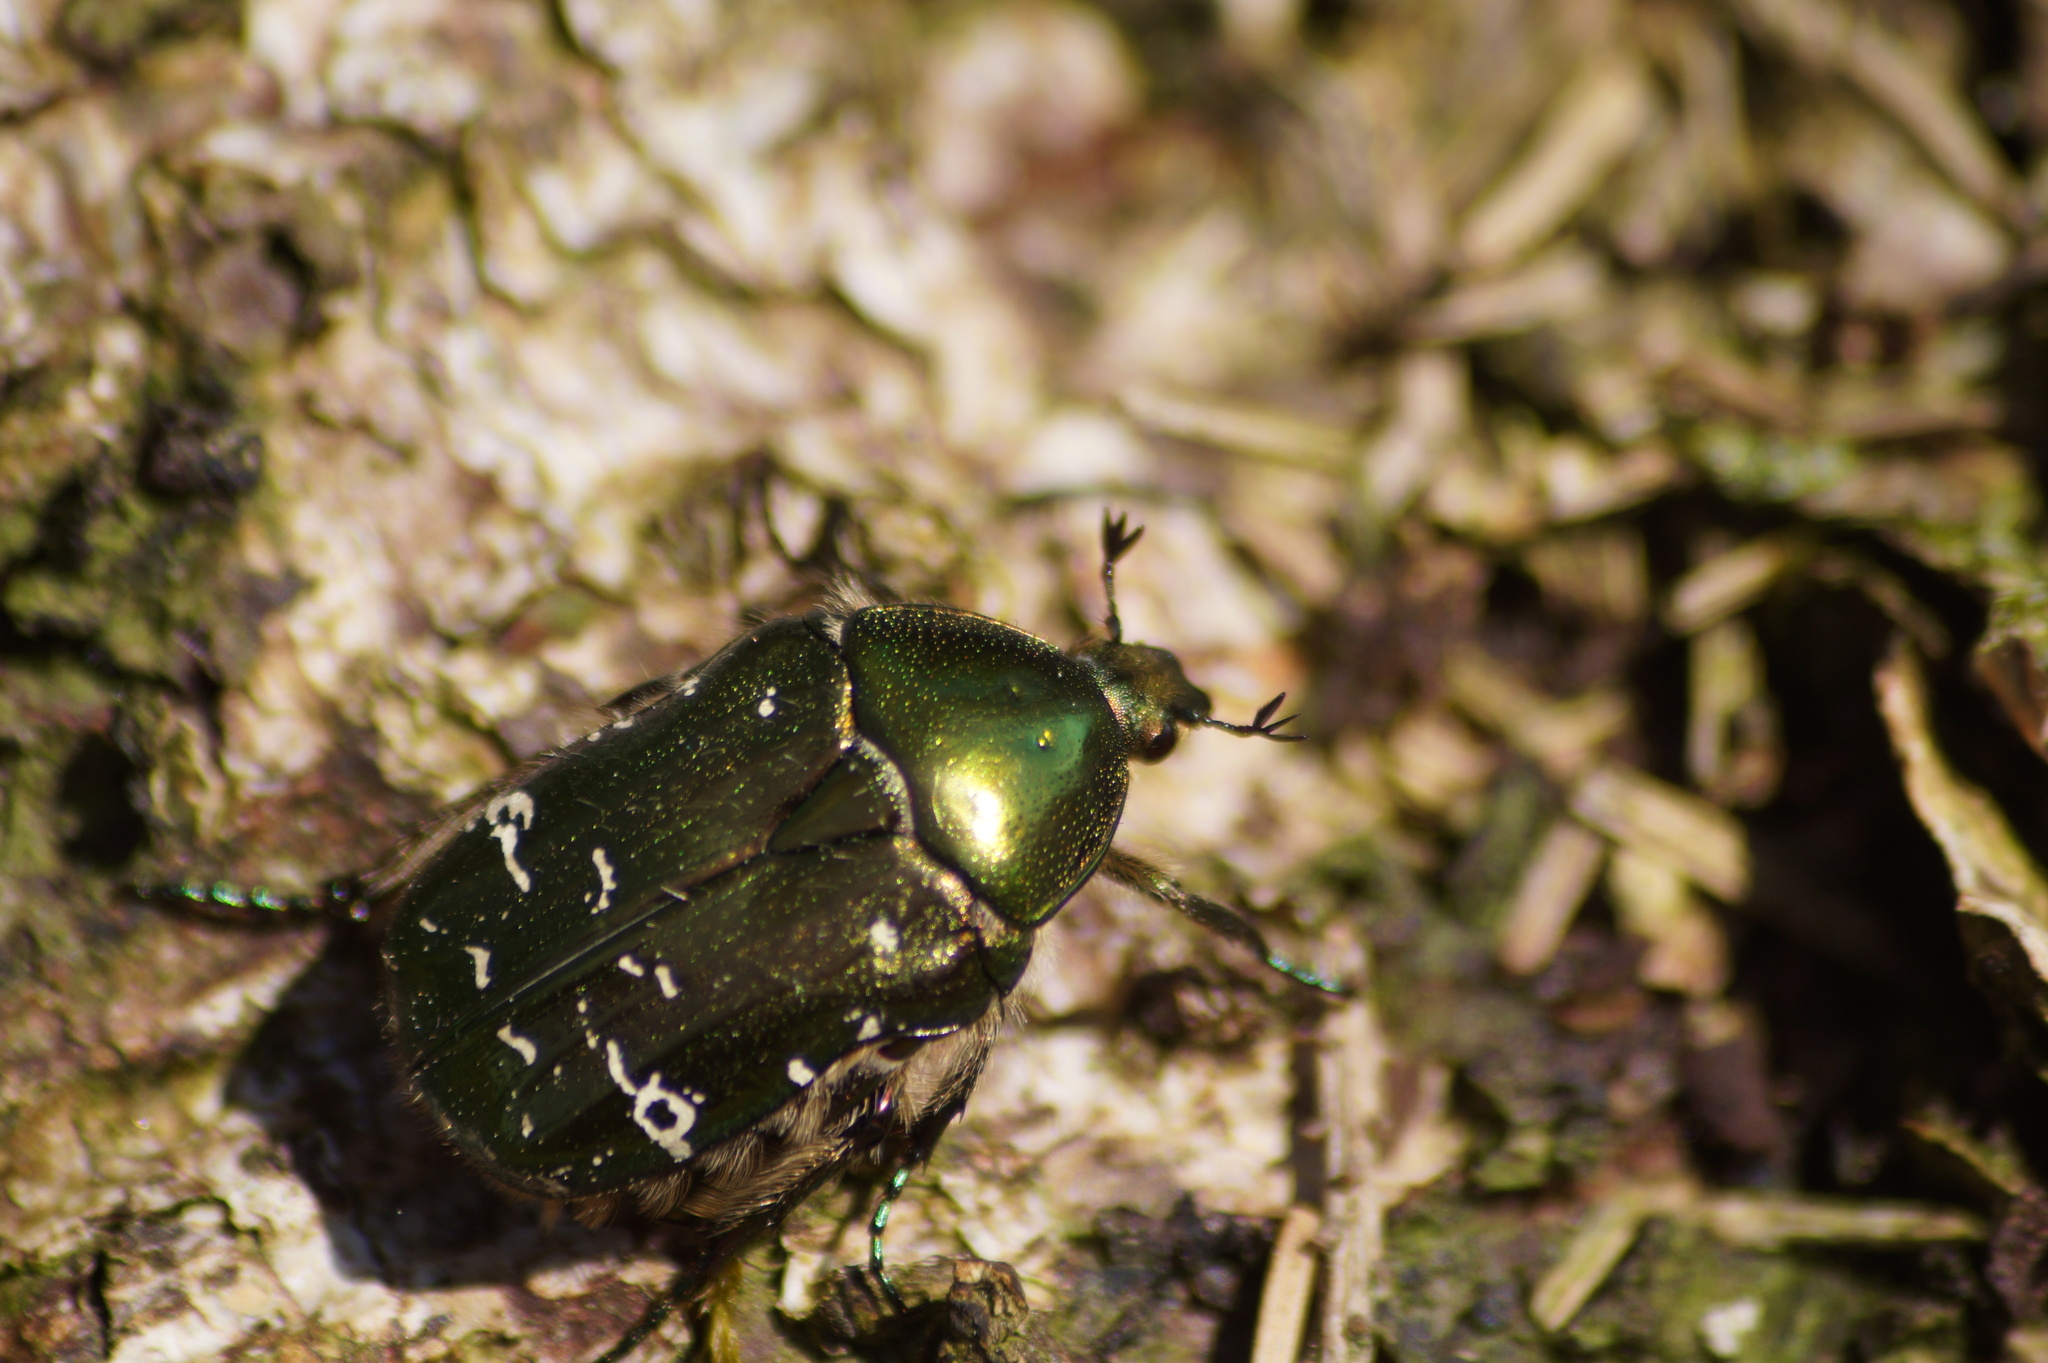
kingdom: Animalia
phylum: Arthropoda
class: Insecta
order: Coleoptera
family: Scarabaeidae
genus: Cetonia
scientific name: Cetonia aurata
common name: Rose chafer
